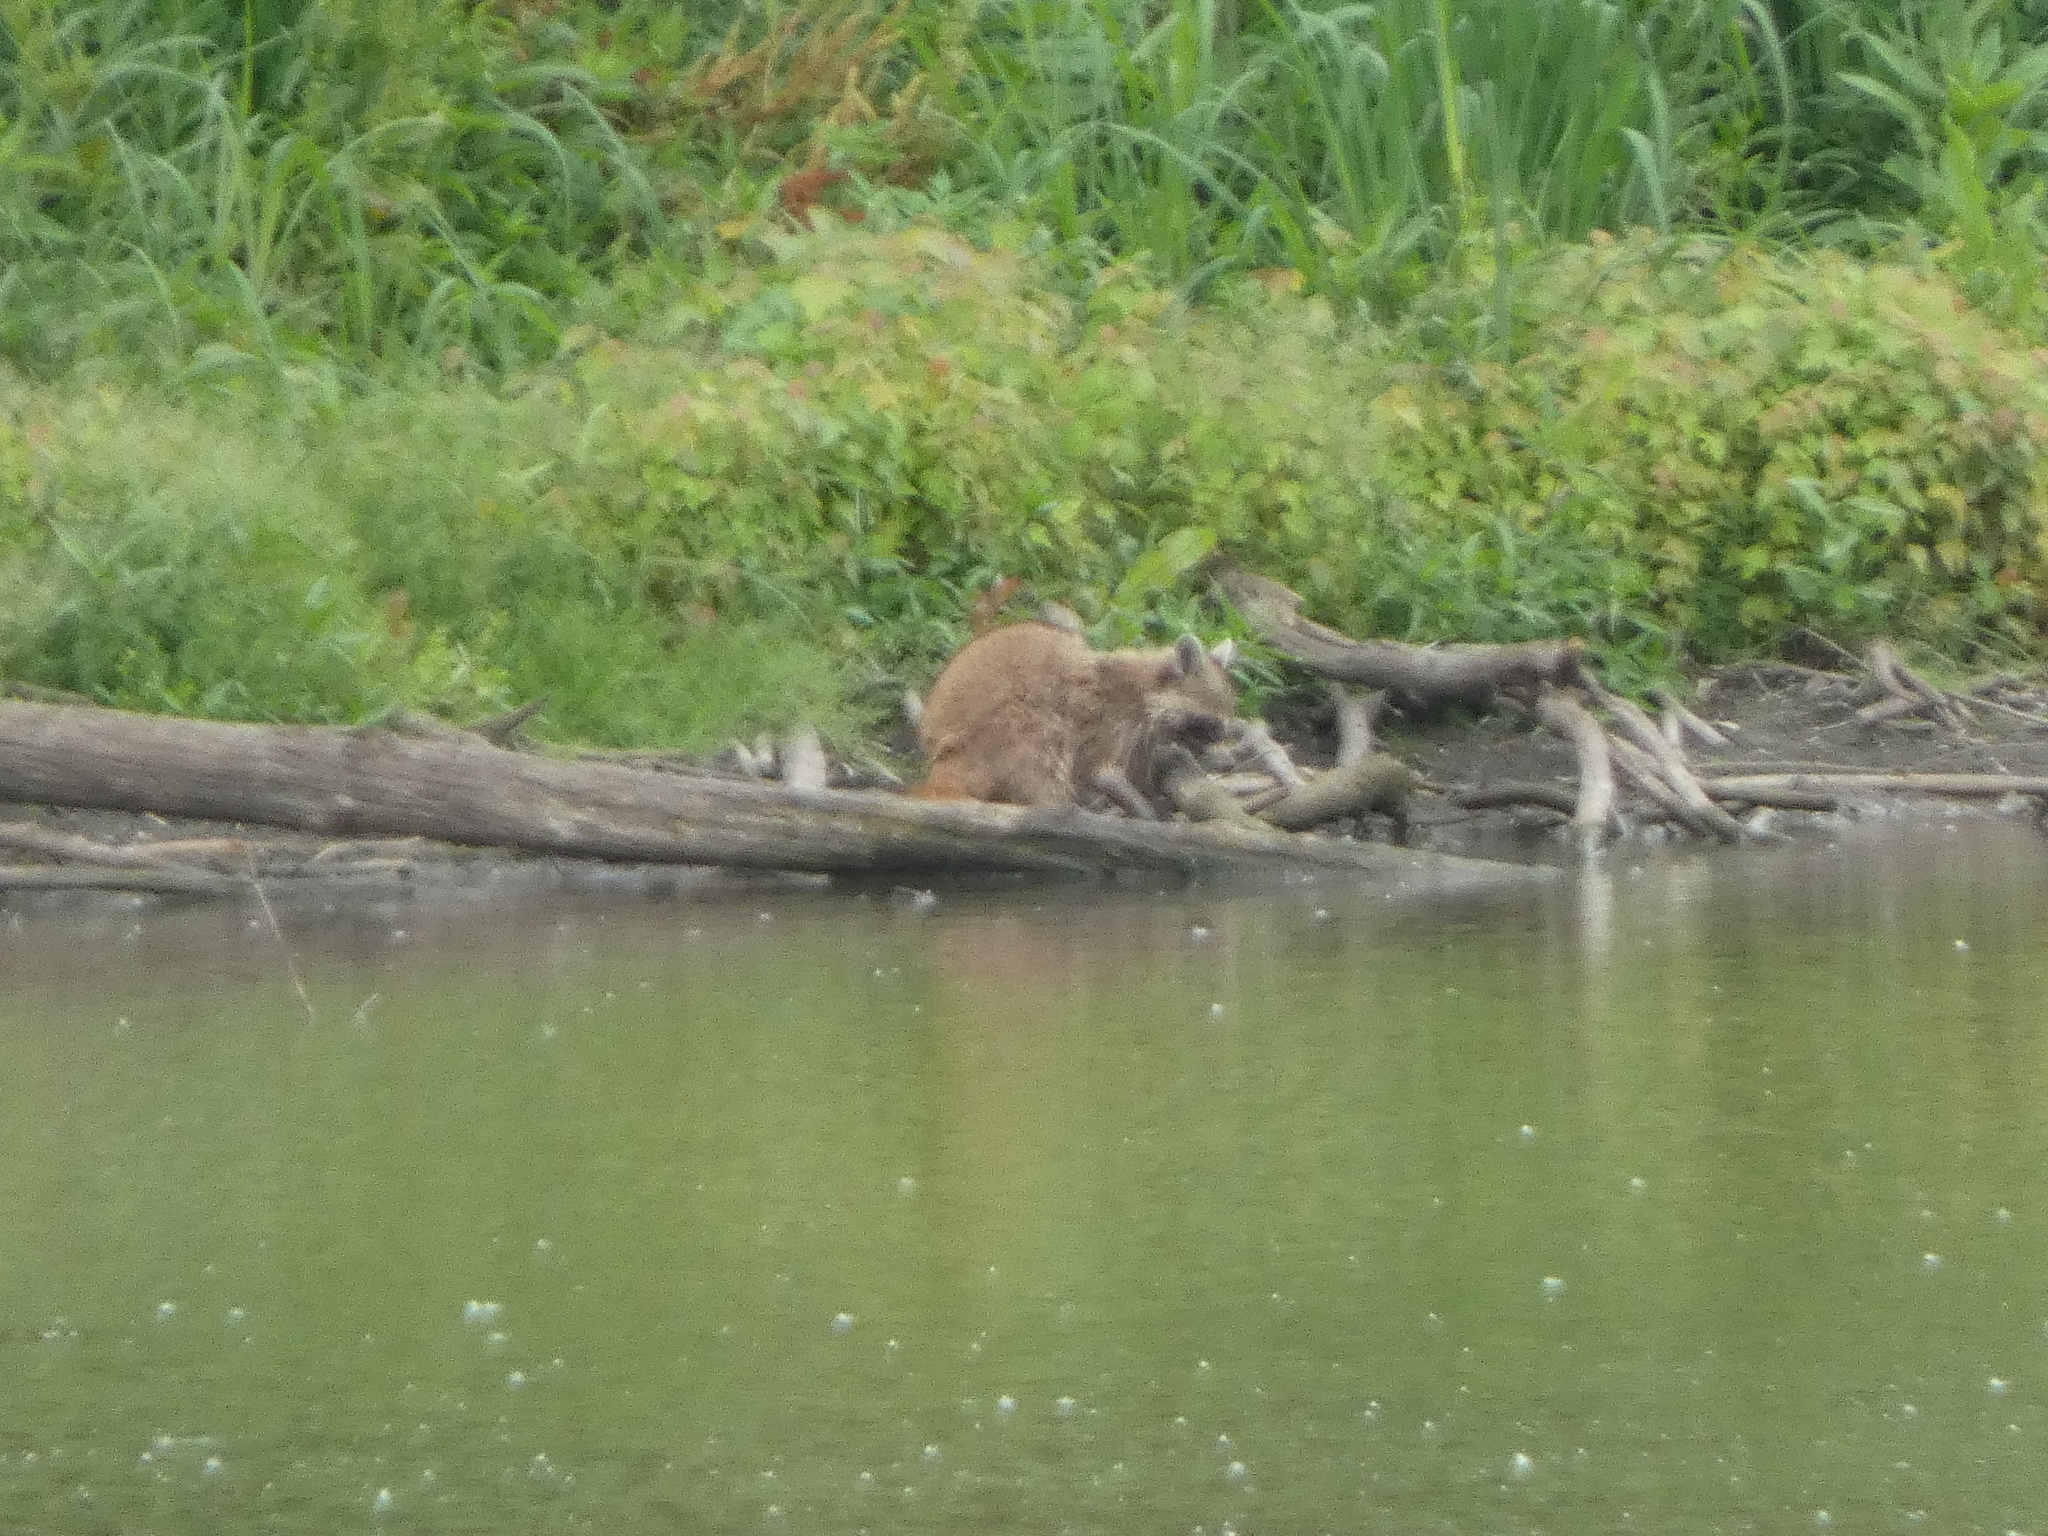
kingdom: Animalia
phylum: Chordata
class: Mammalia
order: Carnivora
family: Procyonidae
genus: Procyon
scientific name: Procyon lotor
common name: Raccoon
